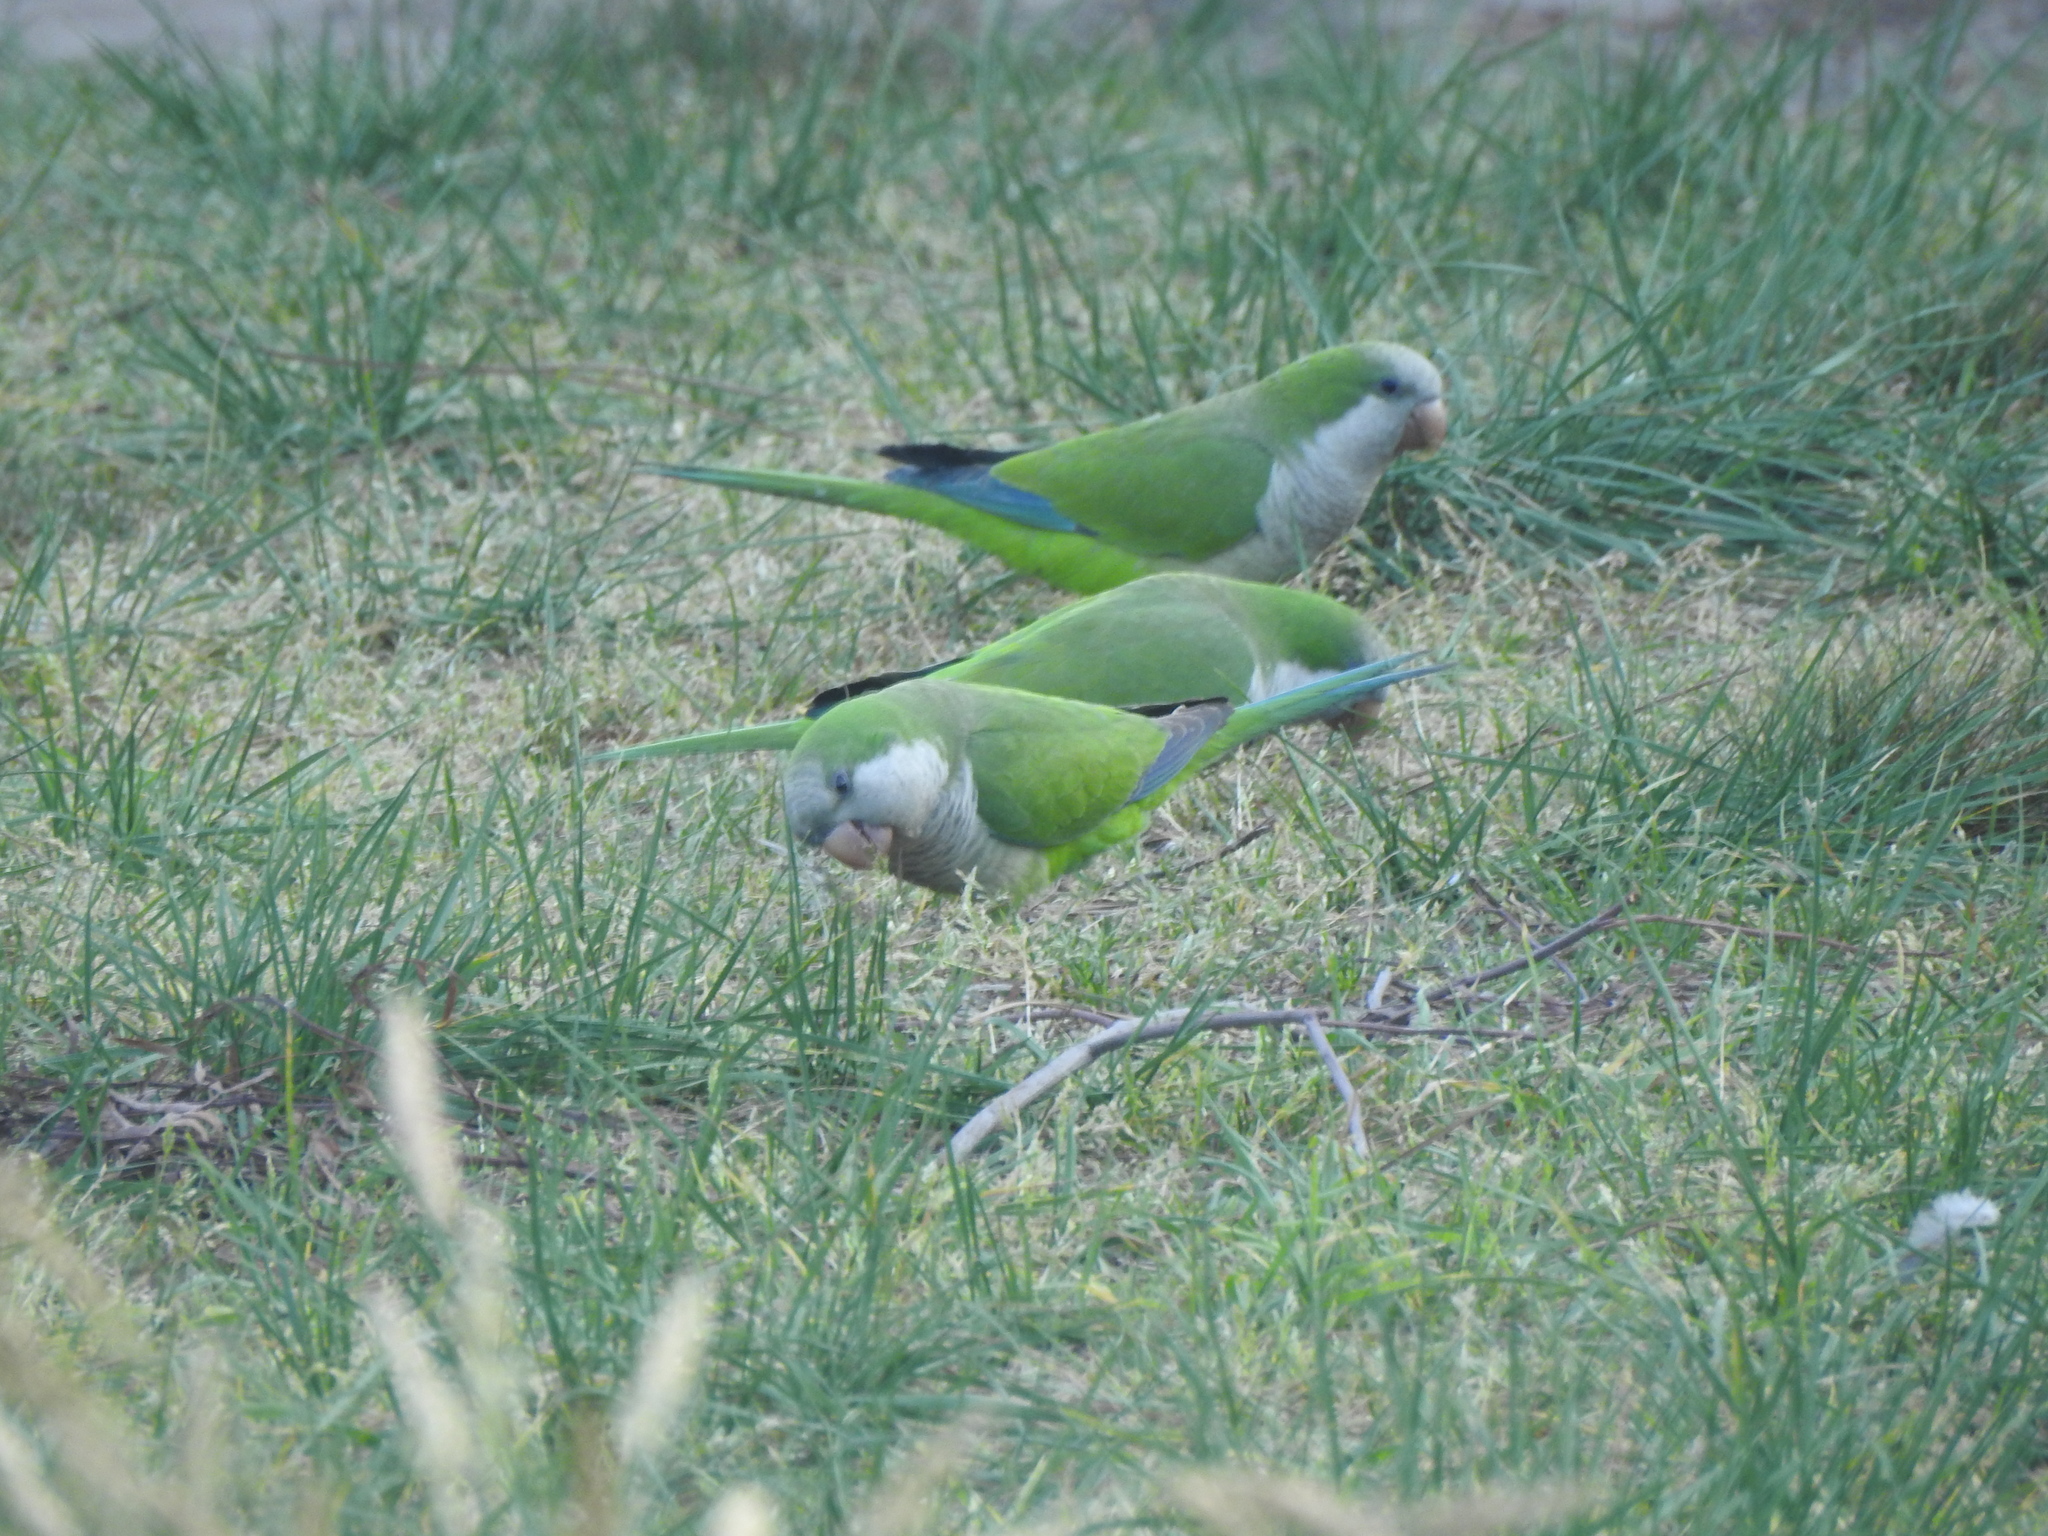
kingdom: Animalia
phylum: Chordata
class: Aves
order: Psittaciformes
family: Psittacidae
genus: Myiopsitta
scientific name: Myiopsitta monachus
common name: Monk parakeet
